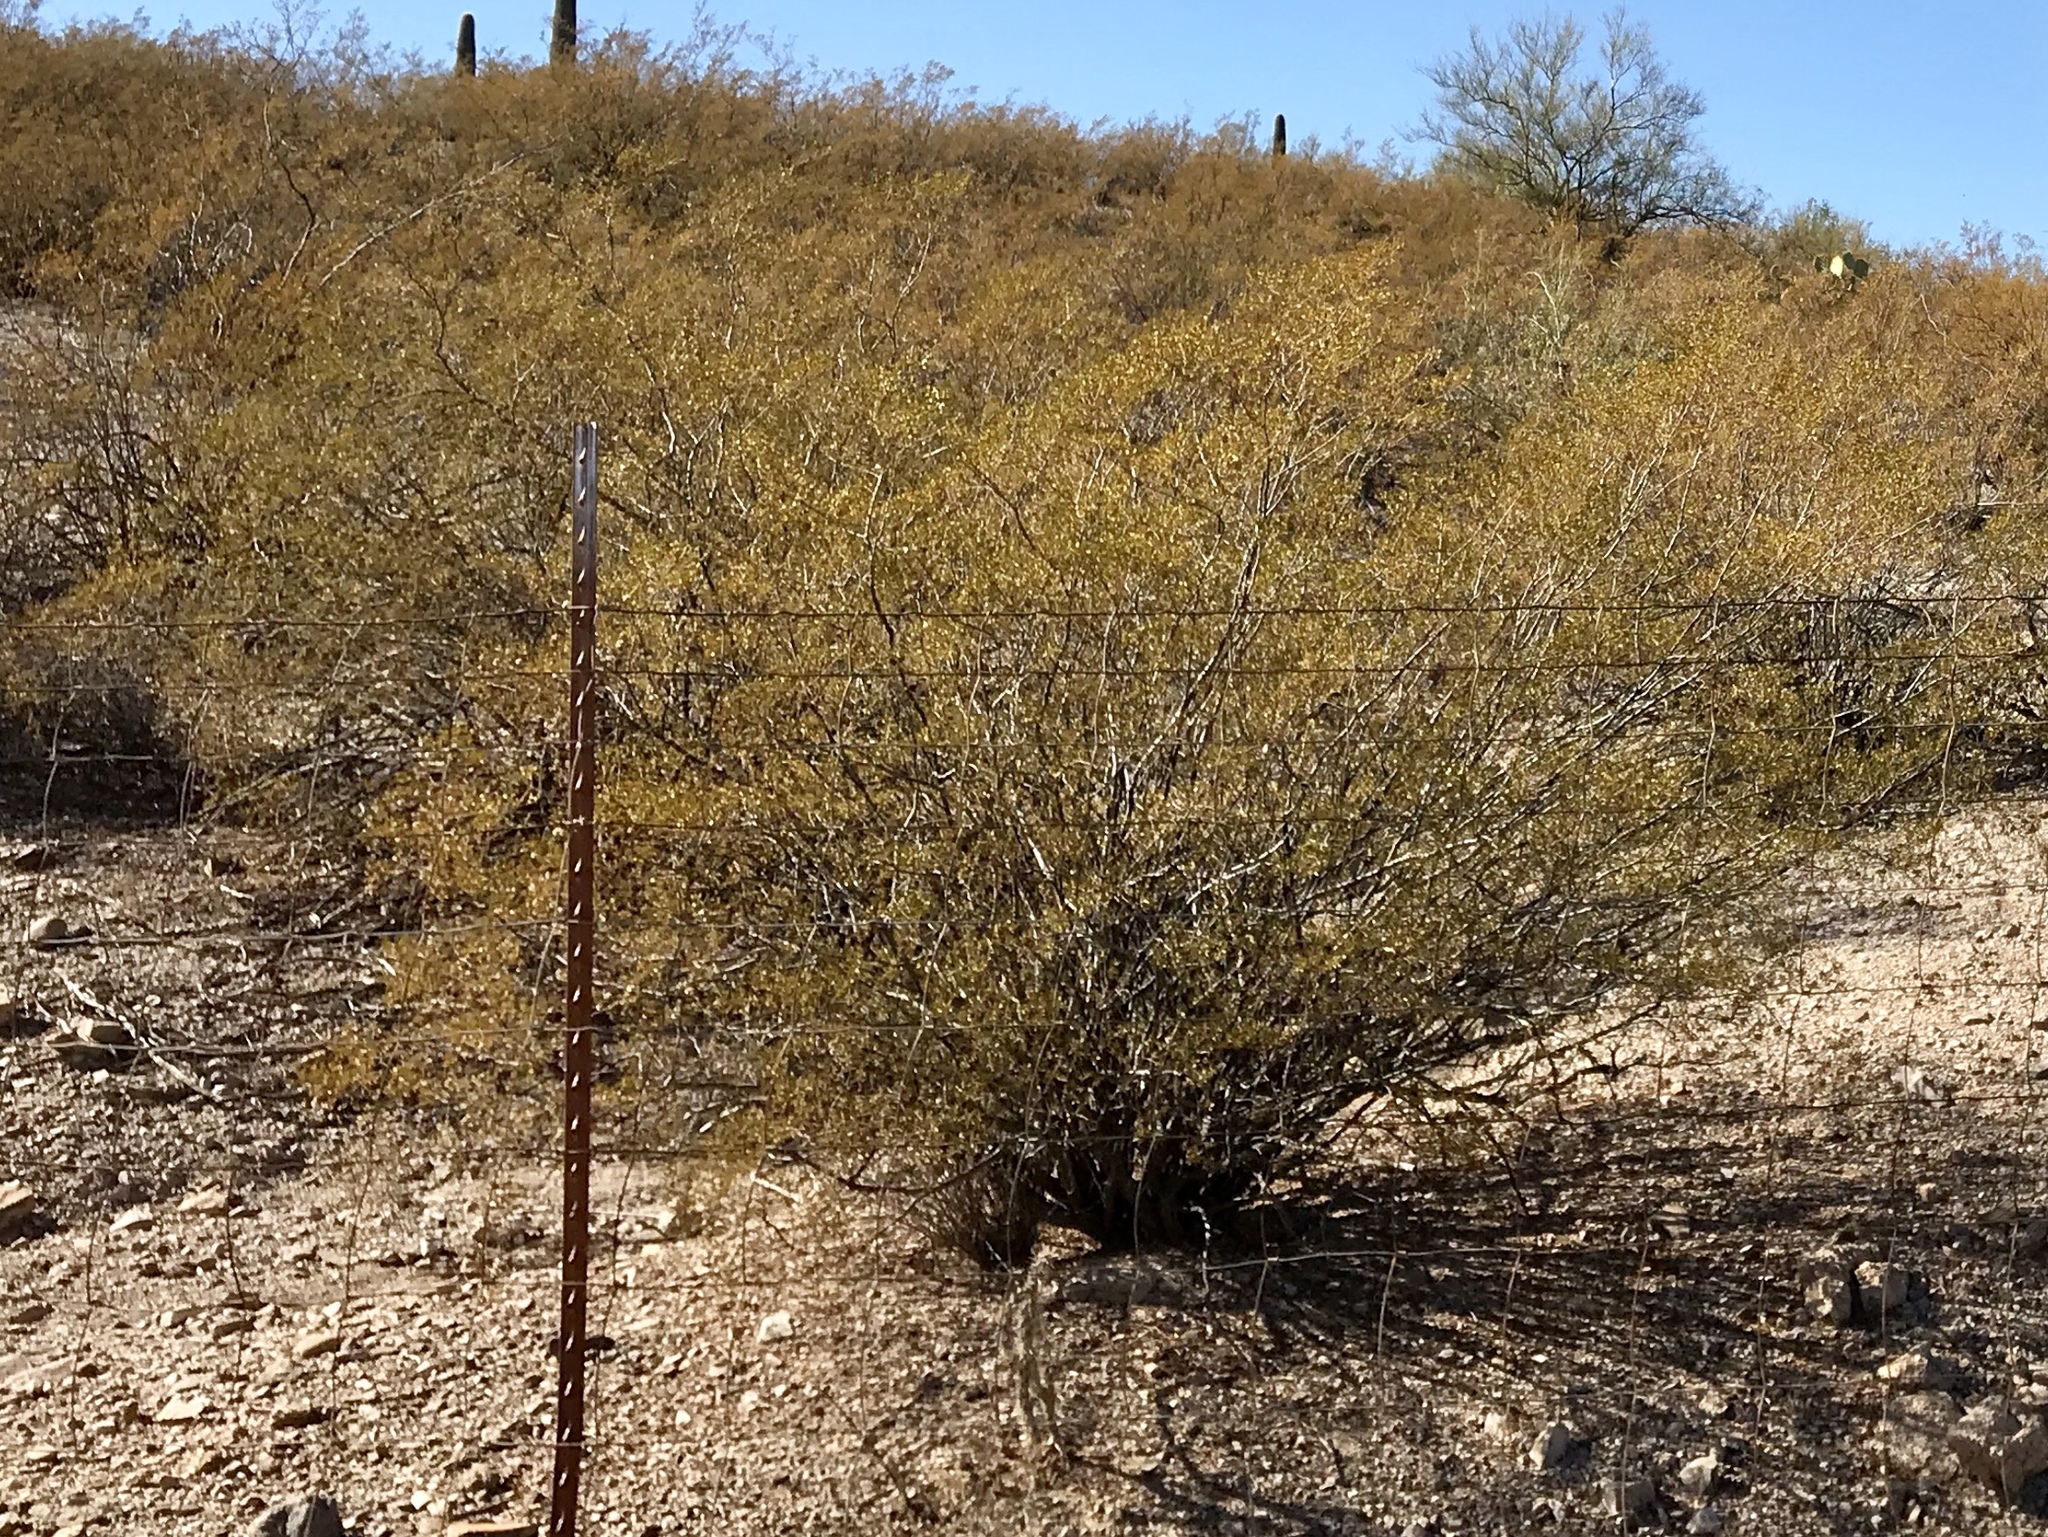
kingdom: Plantae
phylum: Tracheophyta
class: Magnoliopsida
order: Zygophyllales
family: Zygophyllaceae
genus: Larrea
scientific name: Larrea tridentata
